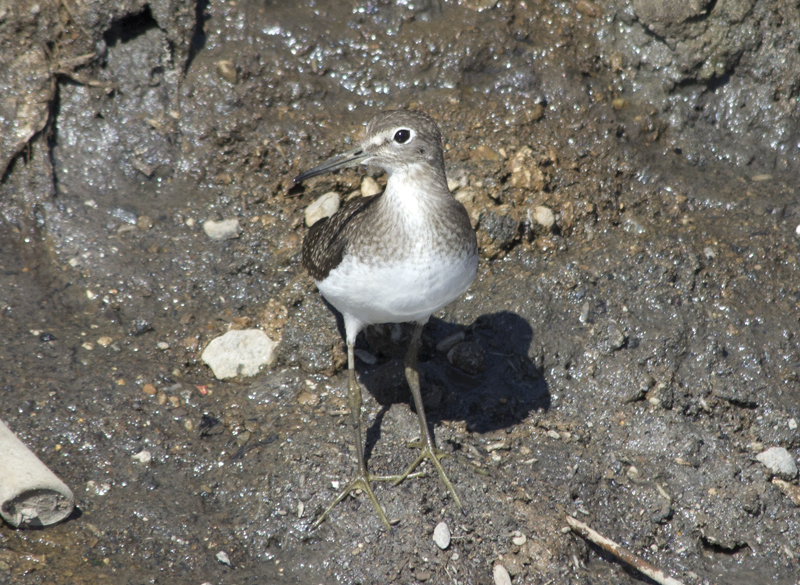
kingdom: Animalia
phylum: Chordata
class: Aves
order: Charadriiformes
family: Scolopacidae
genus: Tringa
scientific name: Tringa solitaria
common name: Solitary sandpiper
